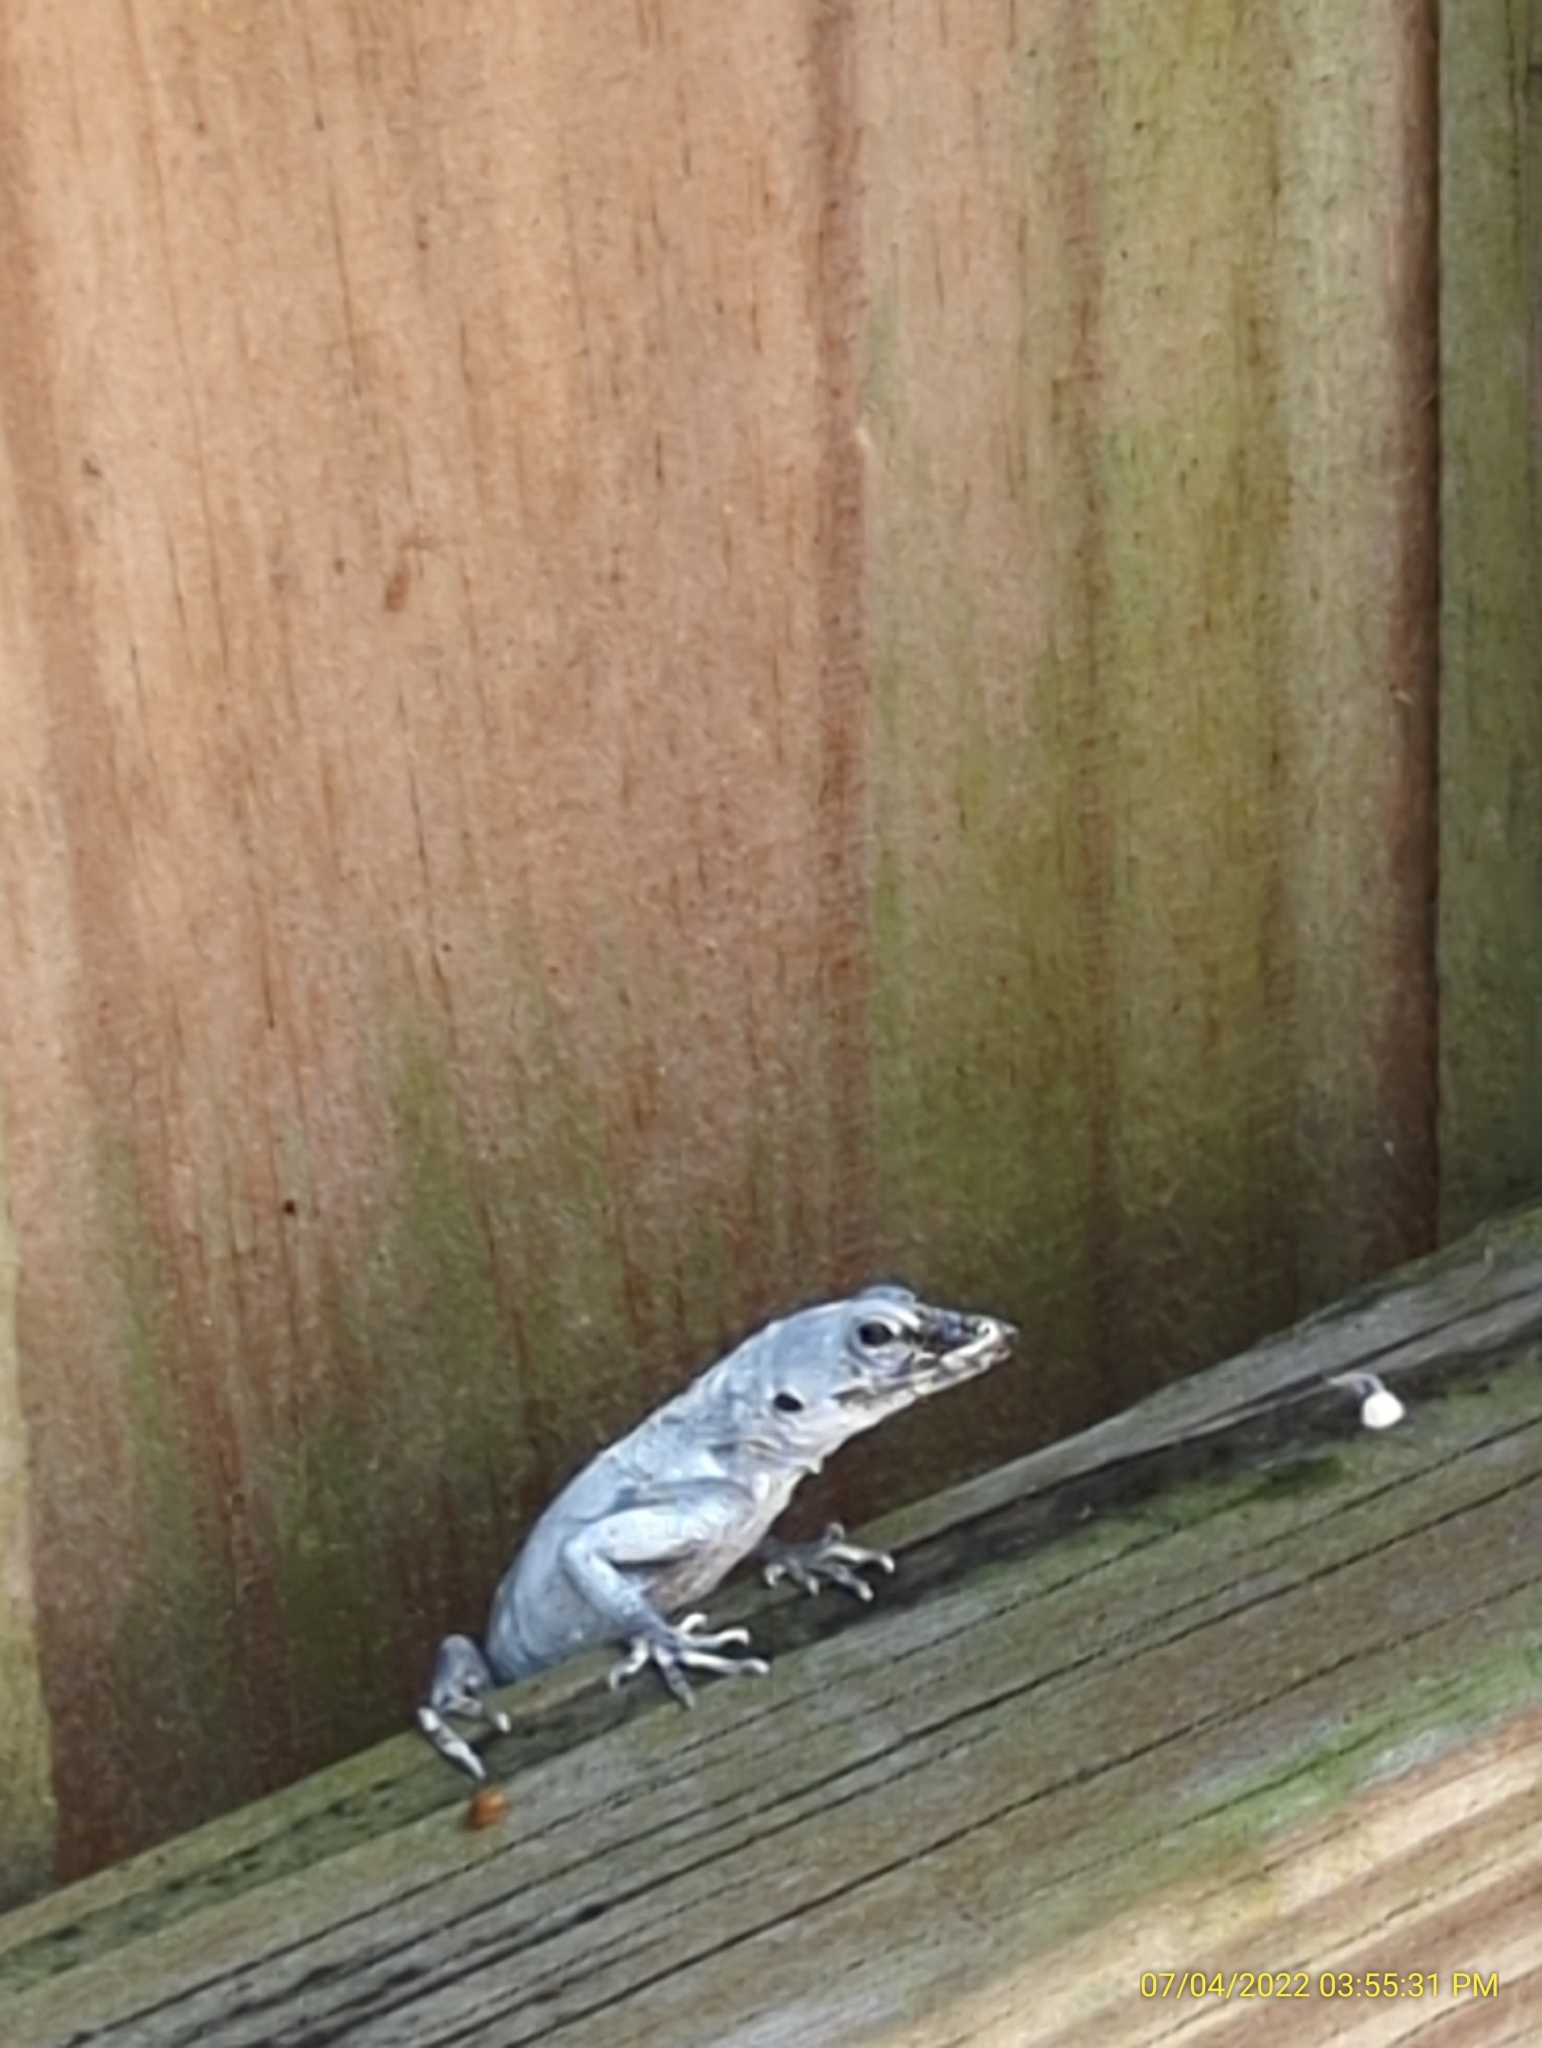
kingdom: Animalia
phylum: Chordata
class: Squamata
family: Dactyloidae
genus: Anolis
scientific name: Anolis sagrei
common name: Brown anole
